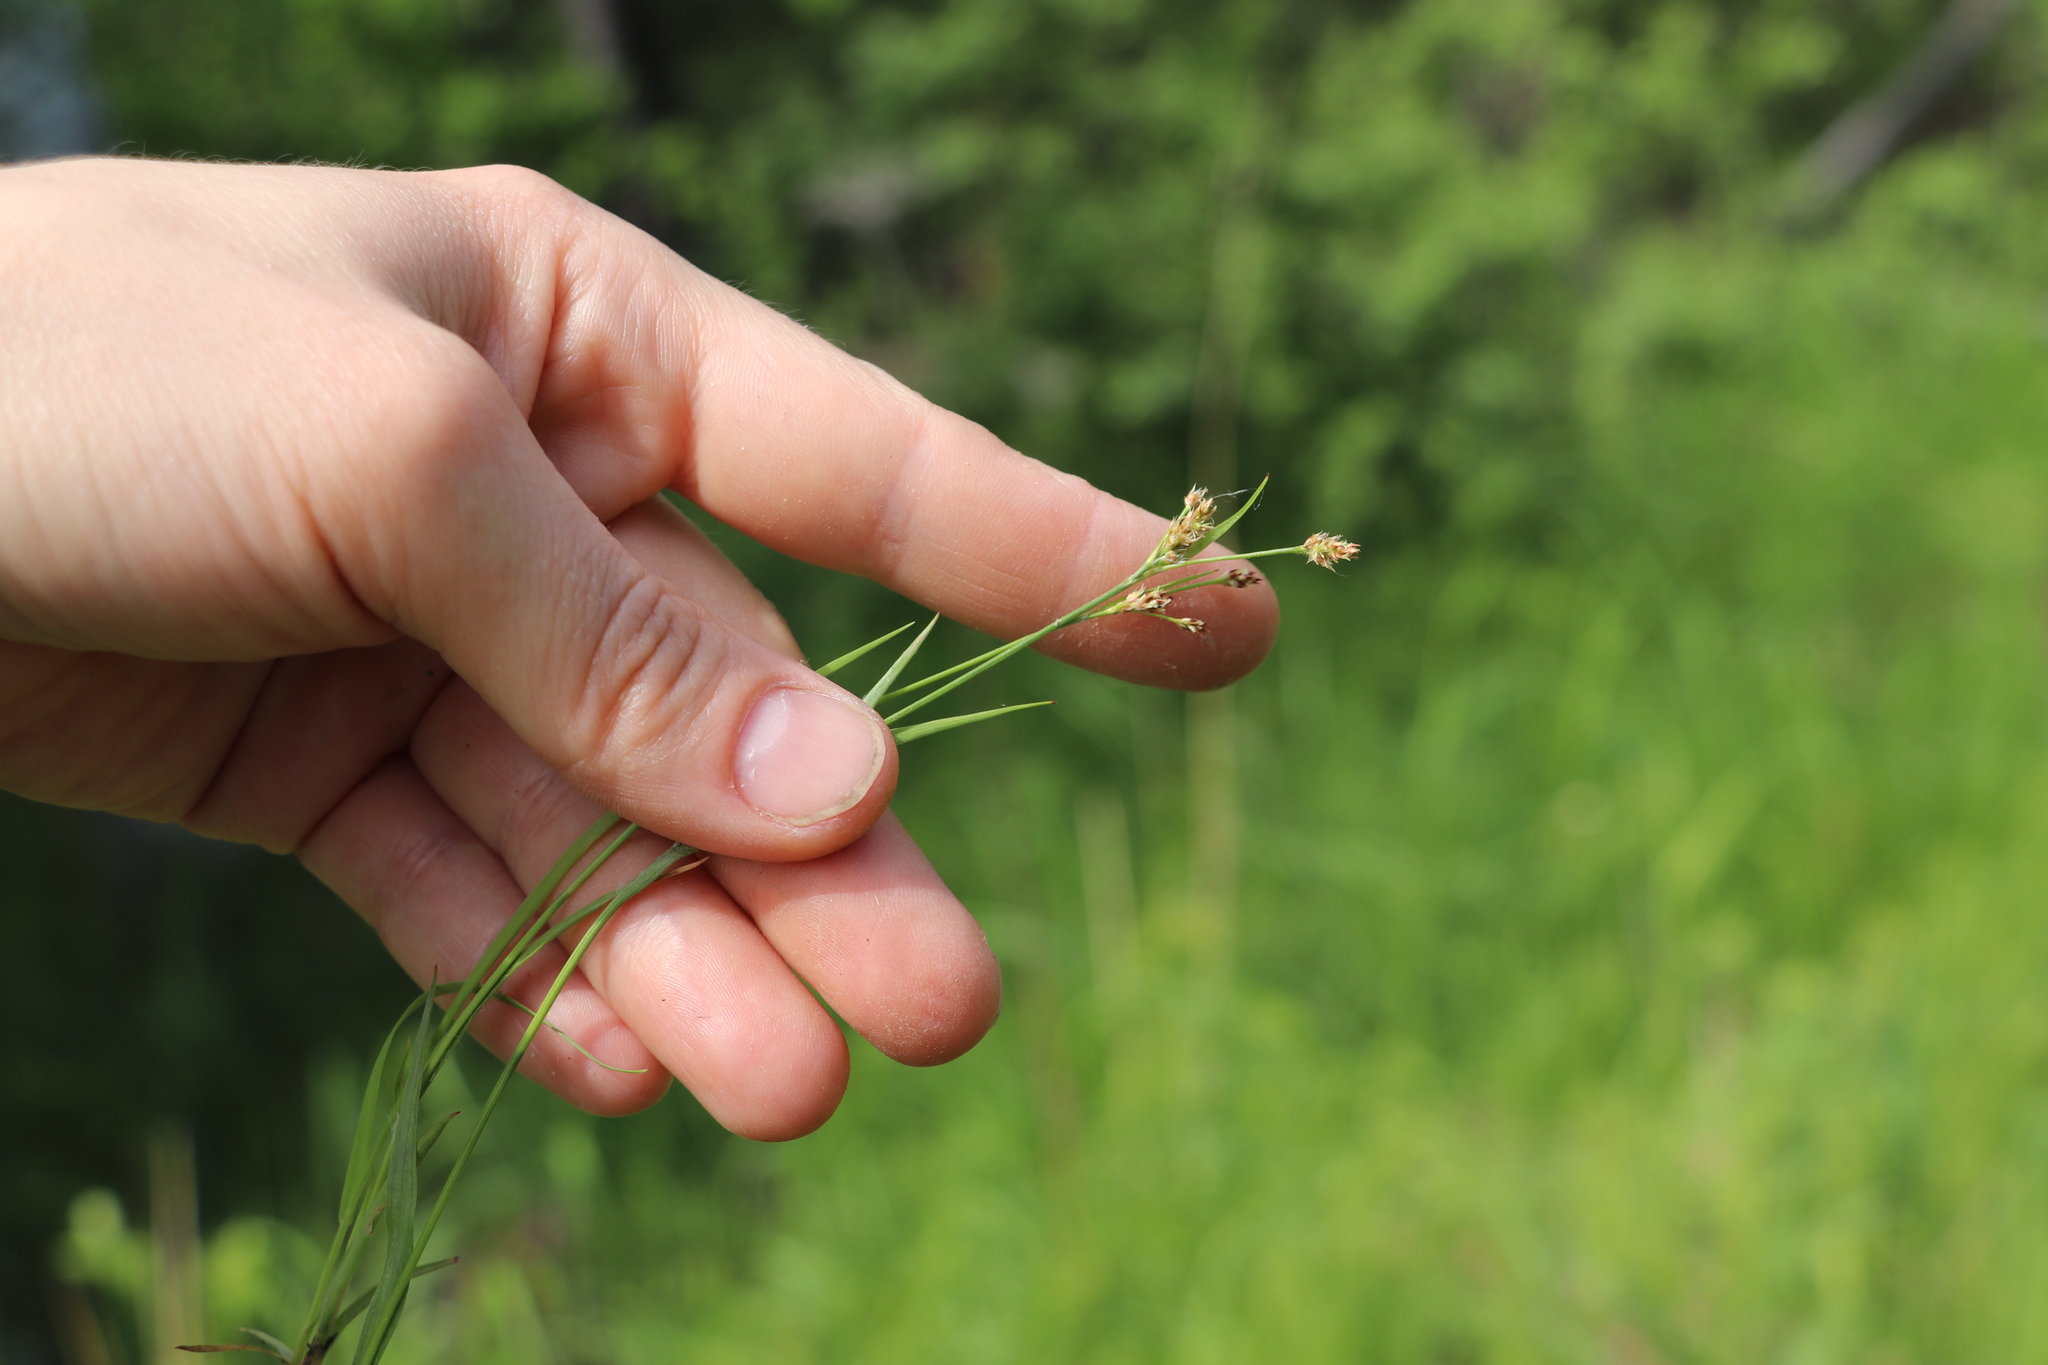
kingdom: Plantae
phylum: Tracheophyta
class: Liliopsida
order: Poales
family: Juncaceae
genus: Luzula
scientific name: Luzula pallescens
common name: Fen wood-rush
